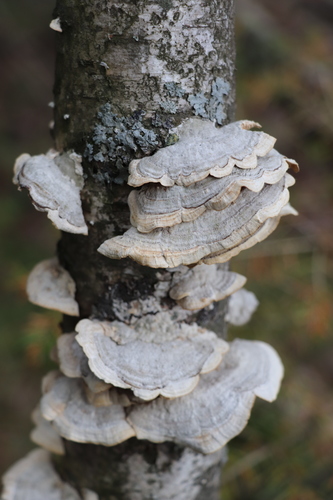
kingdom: Fungi
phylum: Basidiomycota
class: Agaricomycetes
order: Hymenochaetales
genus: Trichaptum
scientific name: Trichaptum biforme
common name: Violet-toothed polypore
